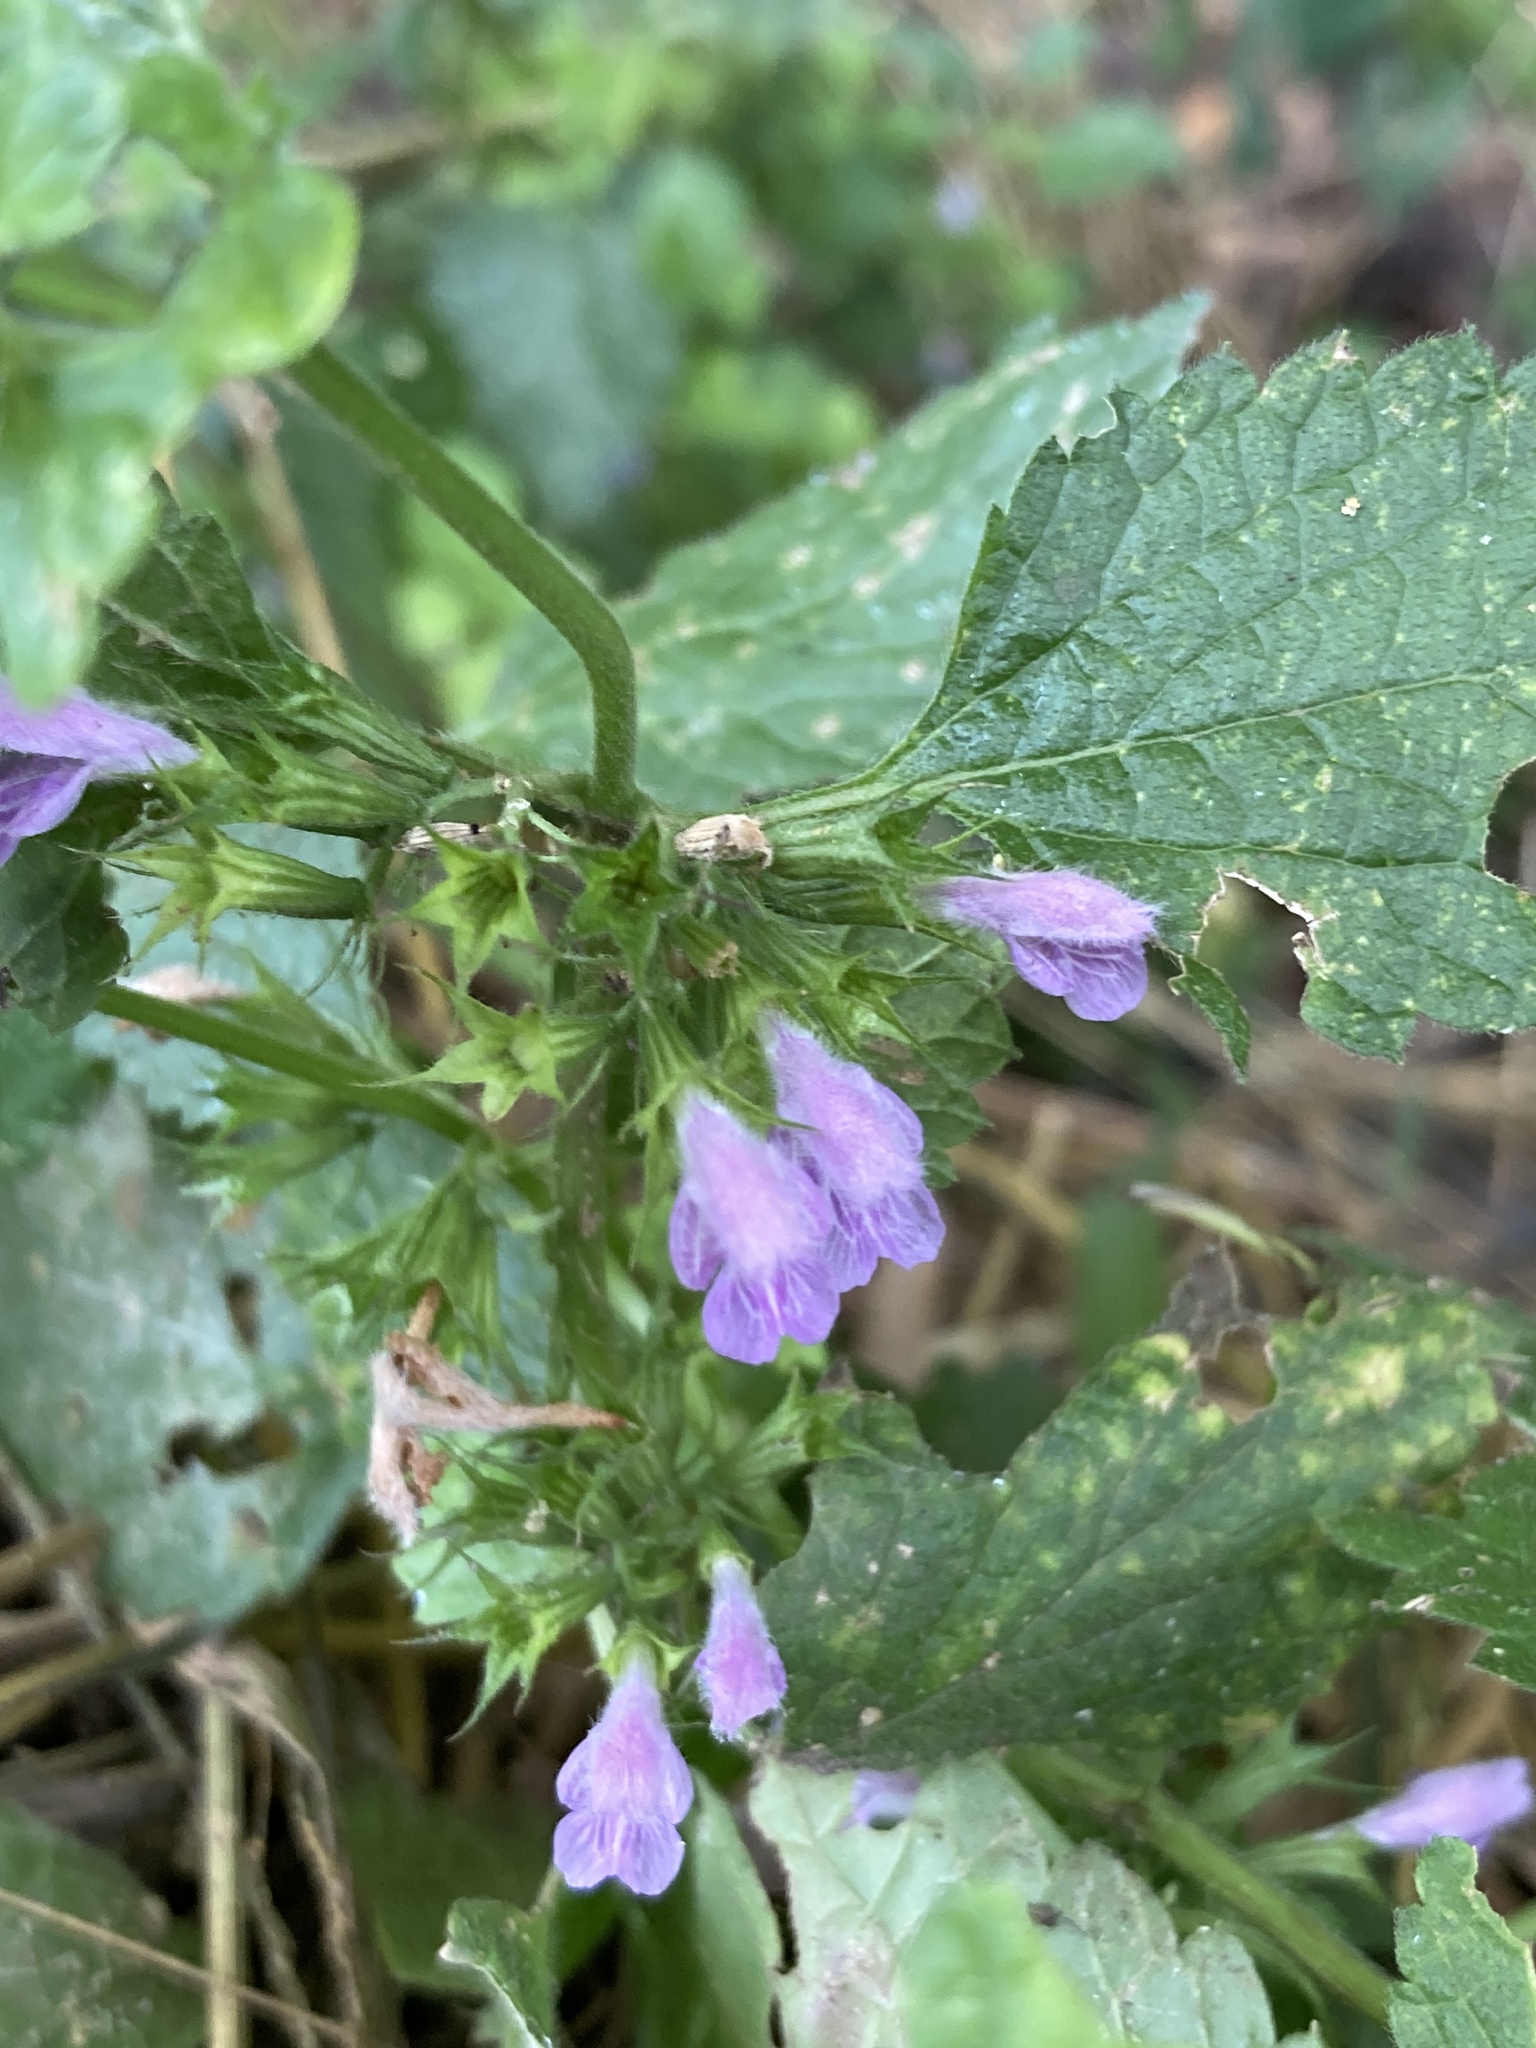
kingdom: Plantae
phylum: Tracheophyta
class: Magnoliopsida
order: Lamiales
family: Lamiaceae
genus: Ballota
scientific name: Ballota nigra
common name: Black horehound
